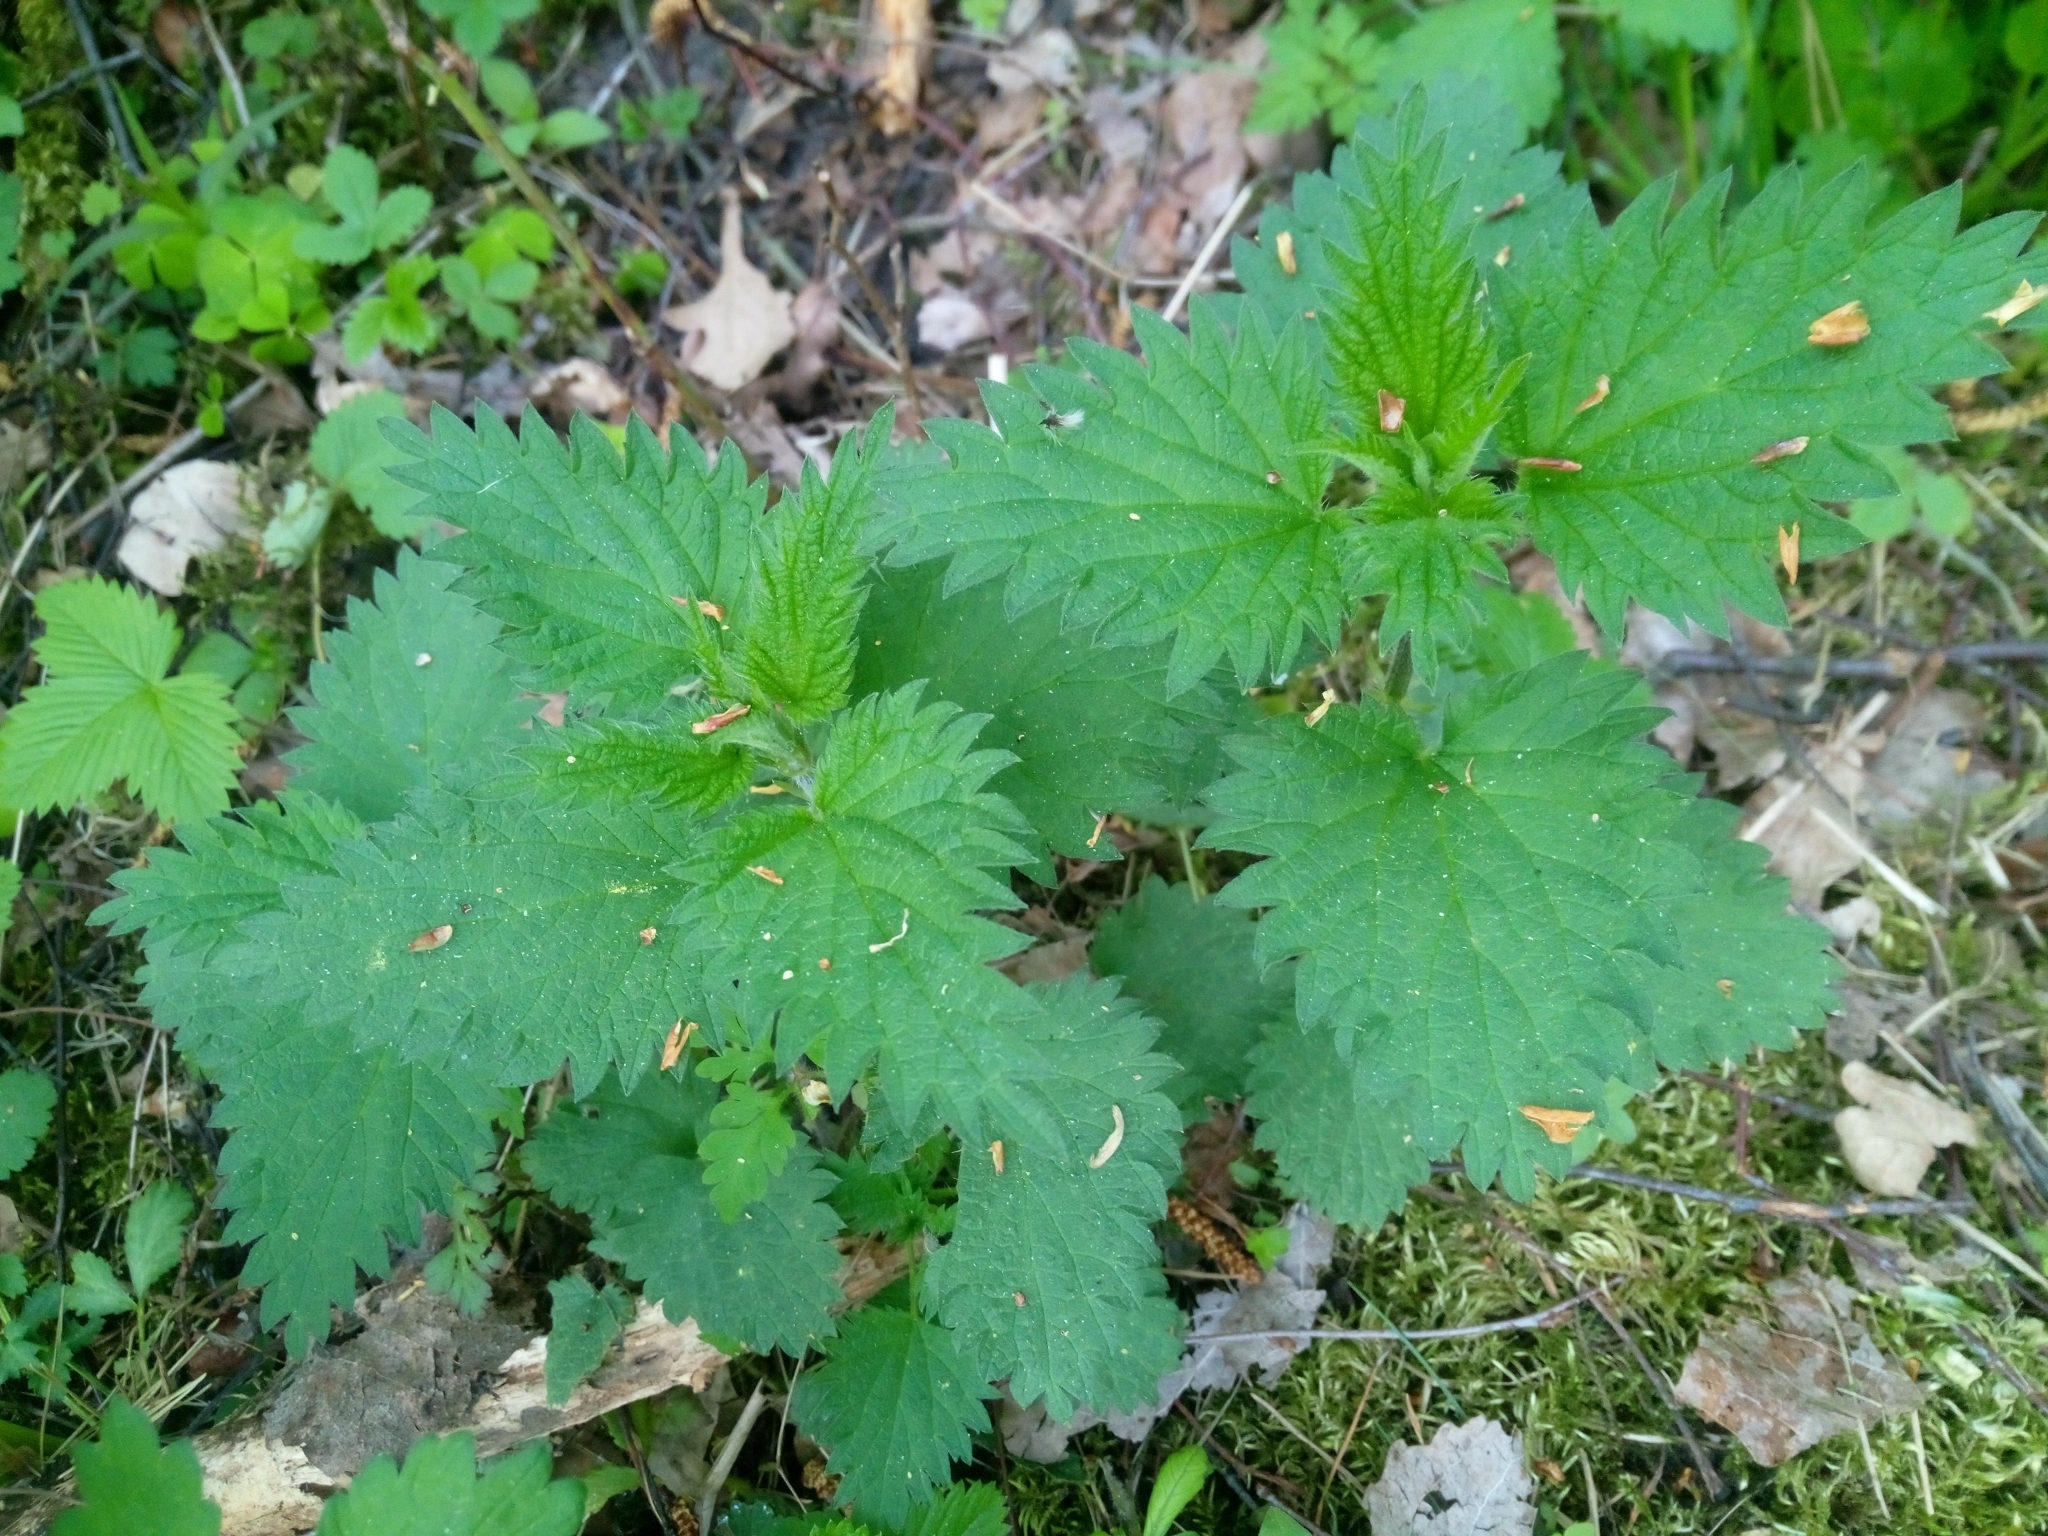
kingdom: Plantae
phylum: Tracheophyta
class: Magnoliopsida
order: Rosales
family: Urticaceae
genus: Urtica
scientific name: Urtica dioica
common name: Common nettle
